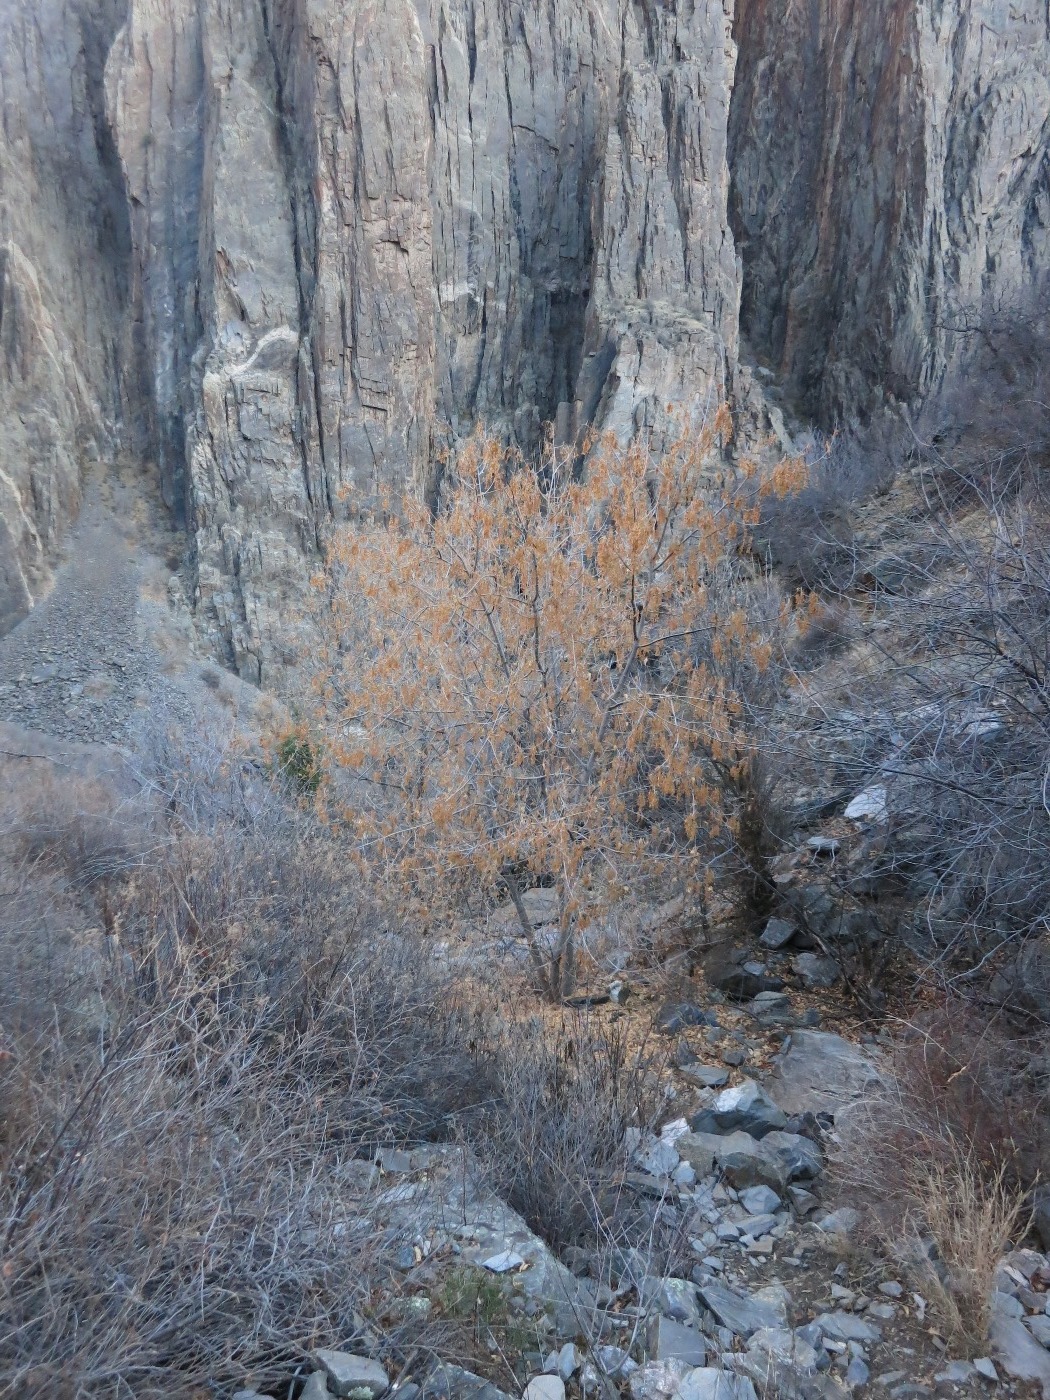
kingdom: Plantae
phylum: Tracheophyta
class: Magnoliopsida
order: Sapindales
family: Sapindaceae
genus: Acer
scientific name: Acer negundo
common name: Ashleaf maple
